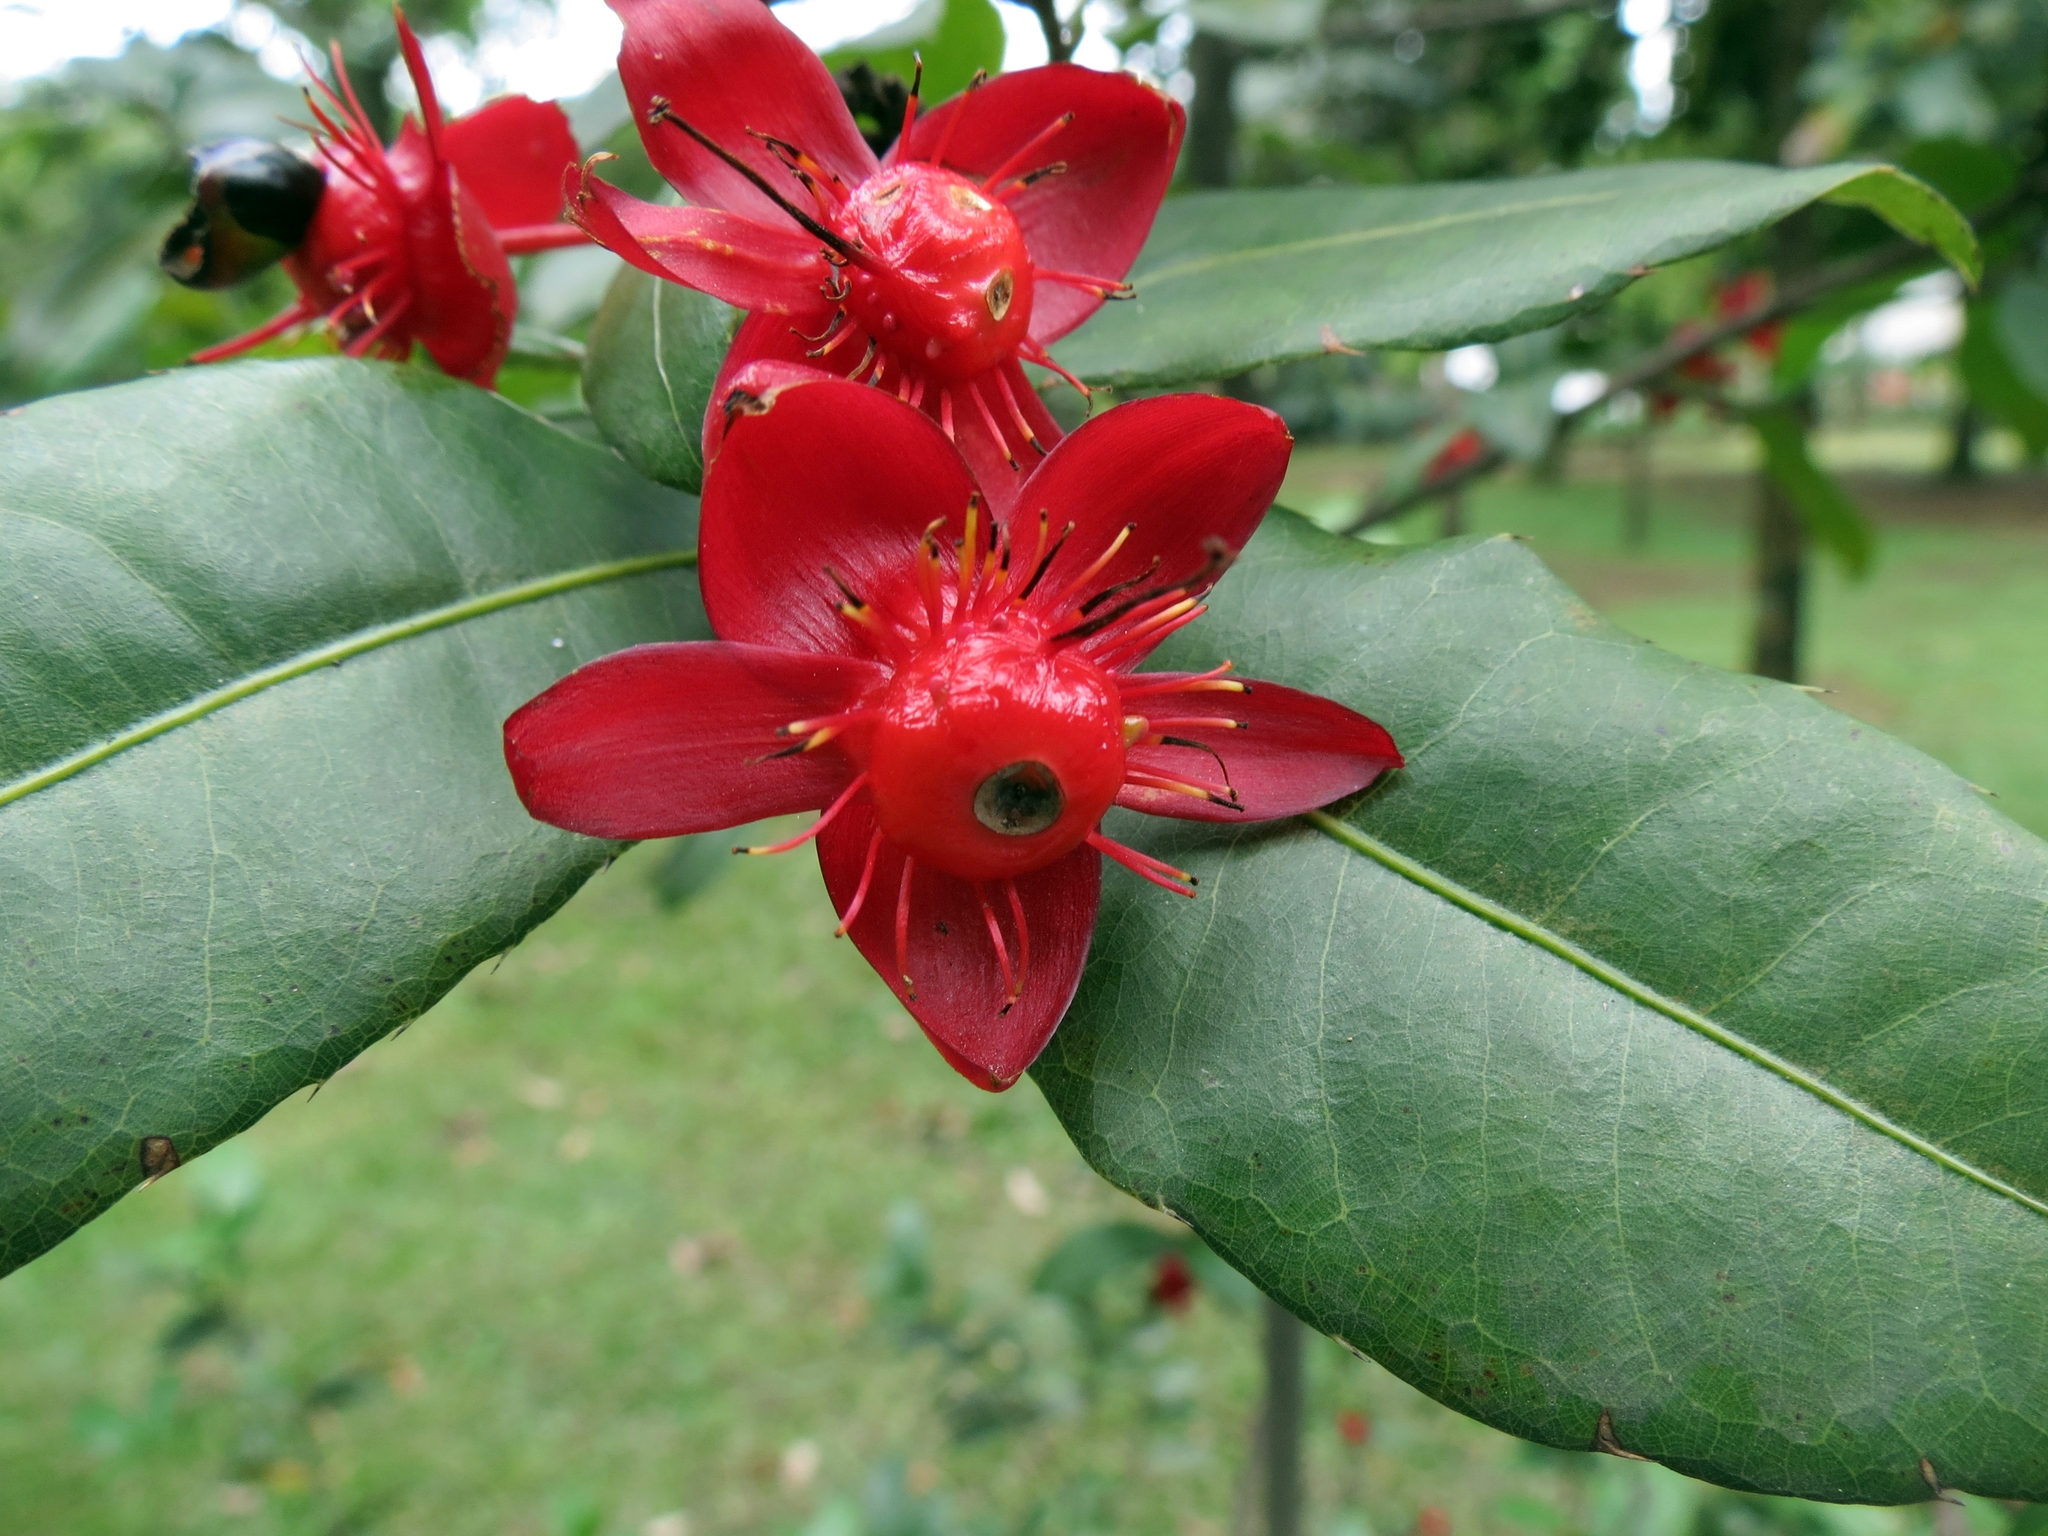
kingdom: Plantae
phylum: Tracheophyta
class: Magnoliopsida
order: Malpighiales
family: Ochnaceae
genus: Ochna
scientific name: Ochna serrulata
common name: Mickey mouse plant
